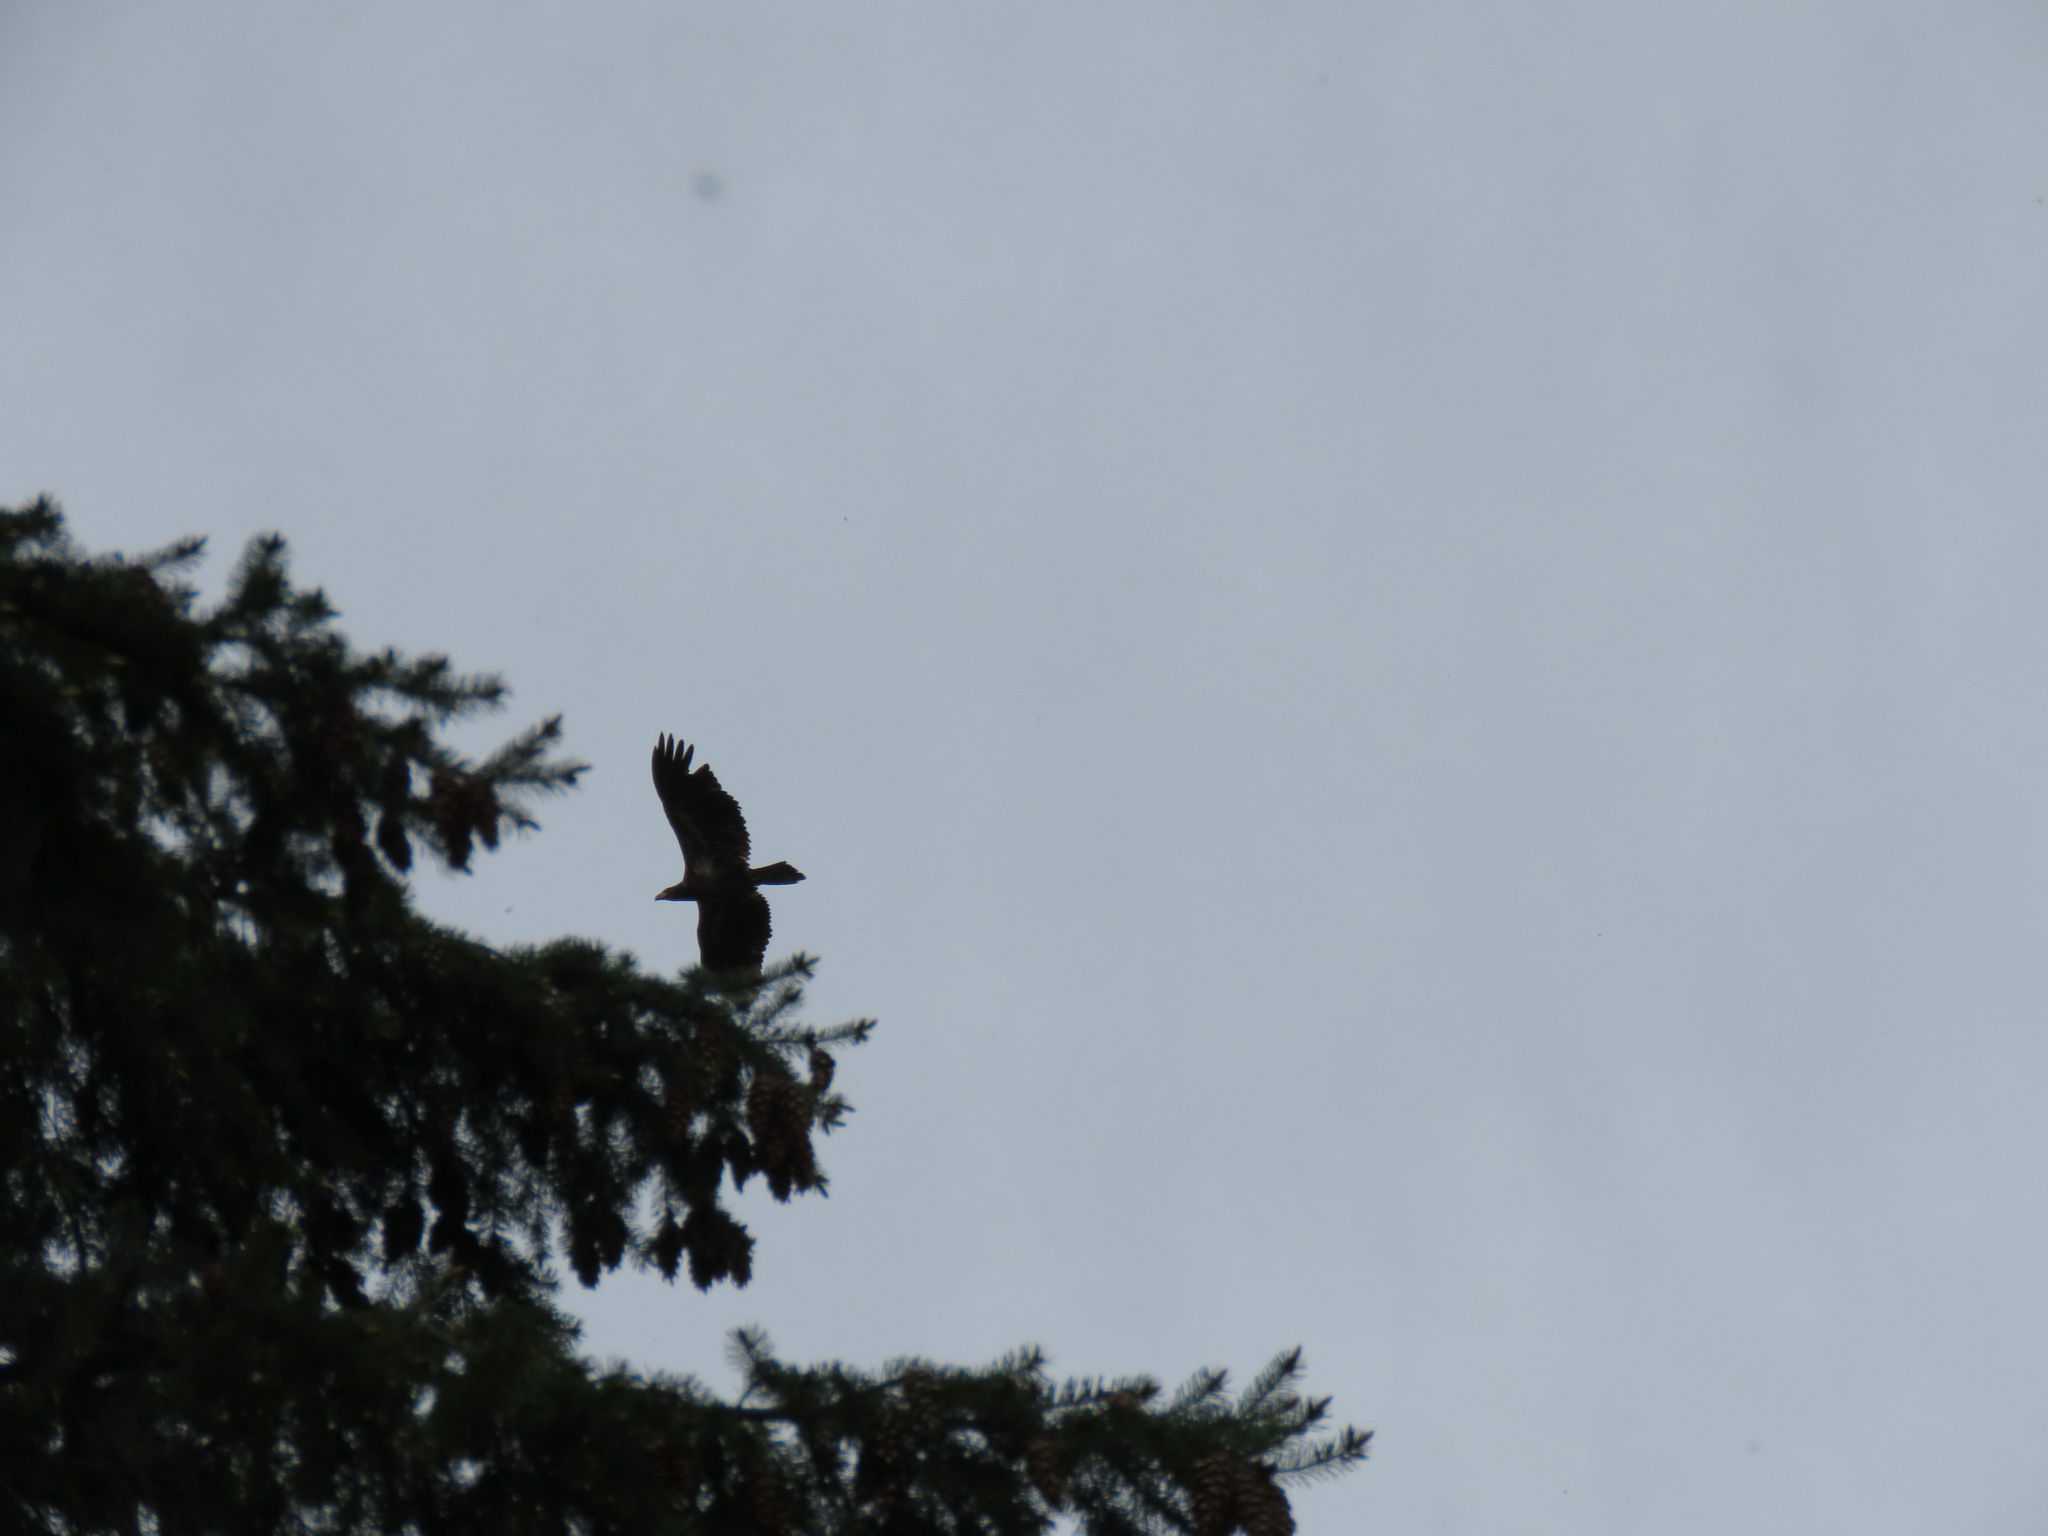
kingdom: Animalia
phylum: Chordata
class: Aves
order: Accipitriformes
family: Accipitridae
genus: Haliaeetus
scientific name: Haliaeetus leucocephalus
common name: Bald eagle
